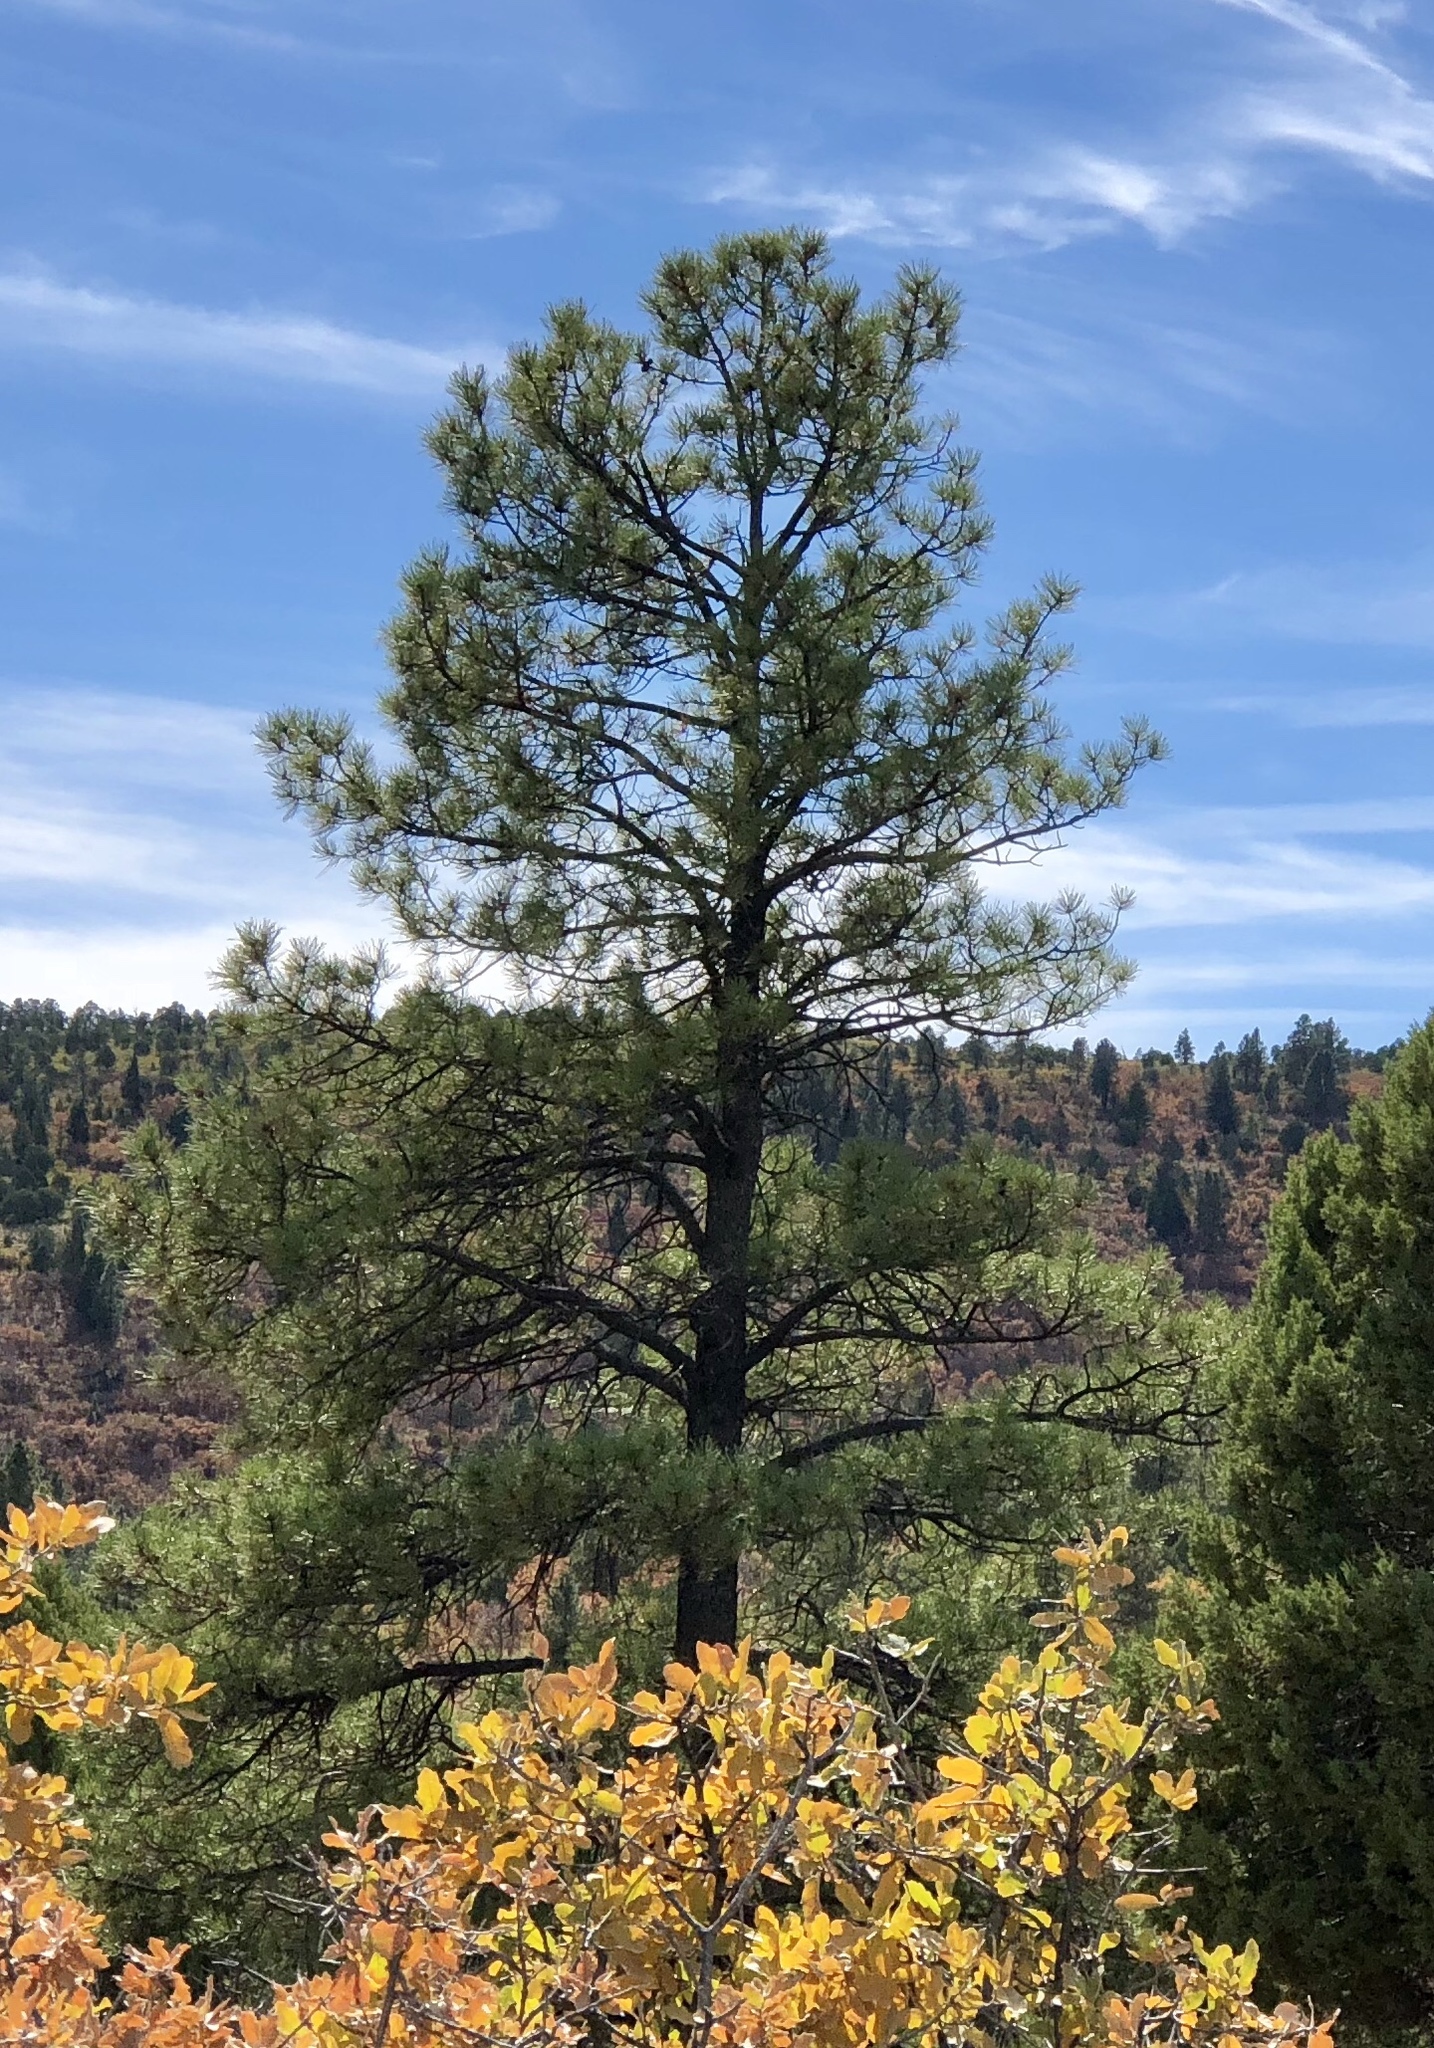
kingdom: Plantae
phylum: Tracheophyta
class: Pinopsida
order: Pinales
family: Pinaceae
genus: Pinus
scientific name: Pinus ponderosa
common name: Western yellow-pine
